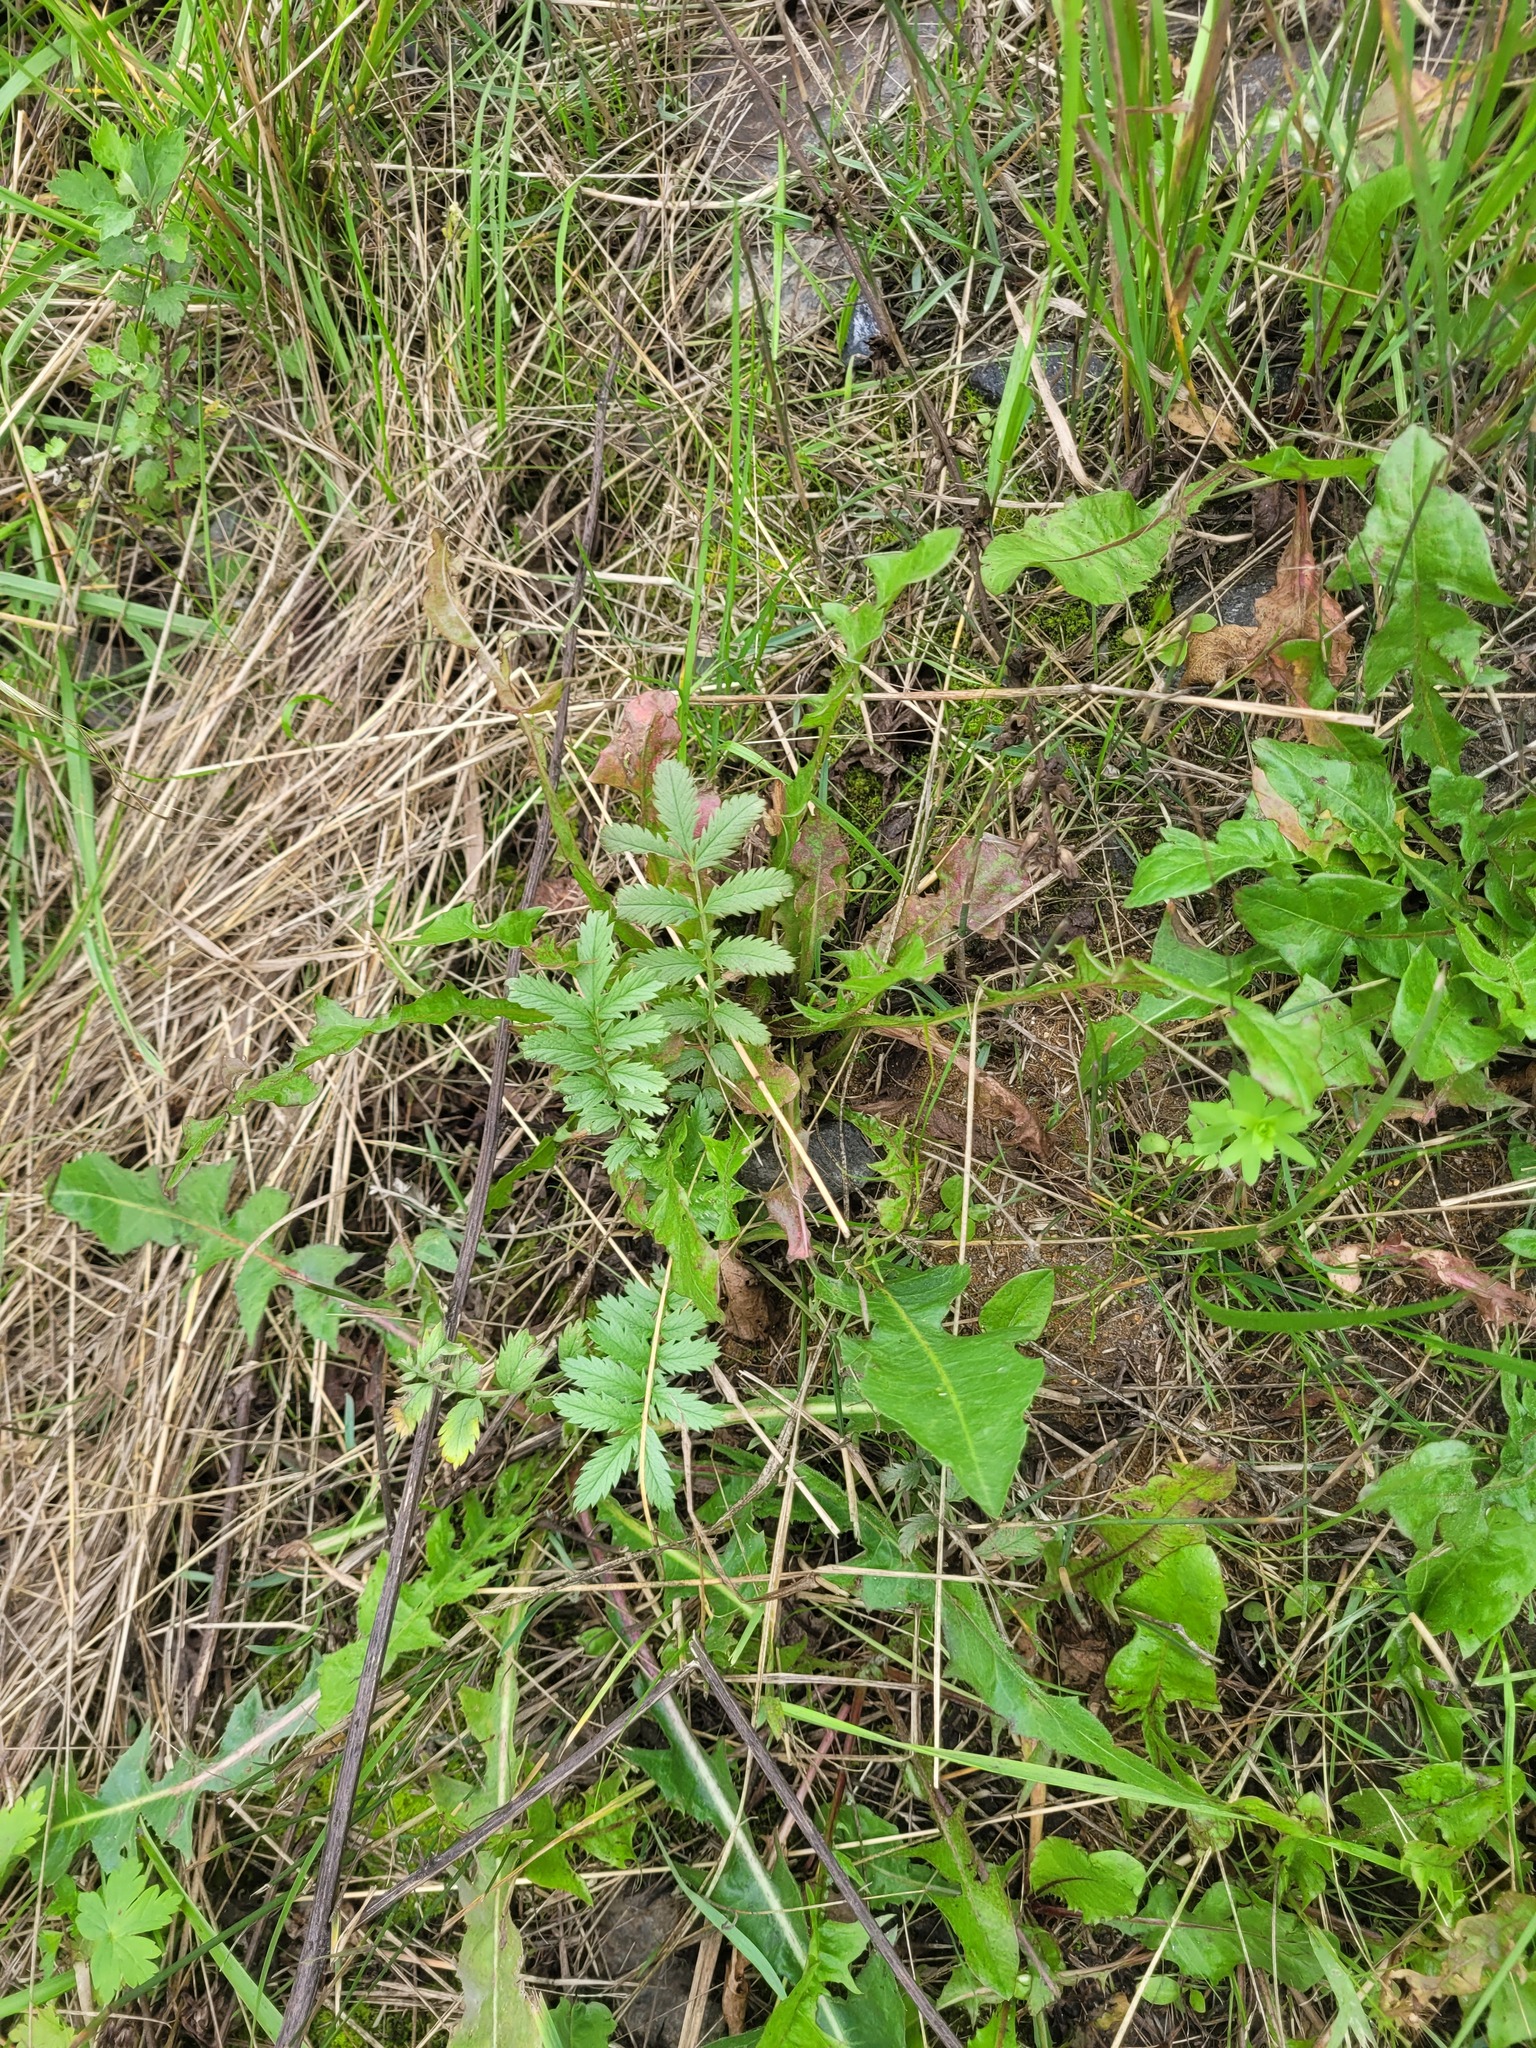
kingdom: Plantae
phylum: Tracheophyta
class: Magnoliopsida
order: Rosales
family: Rosaceae
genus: Argentina
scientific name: Argentina anserina
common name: Common silverweed
